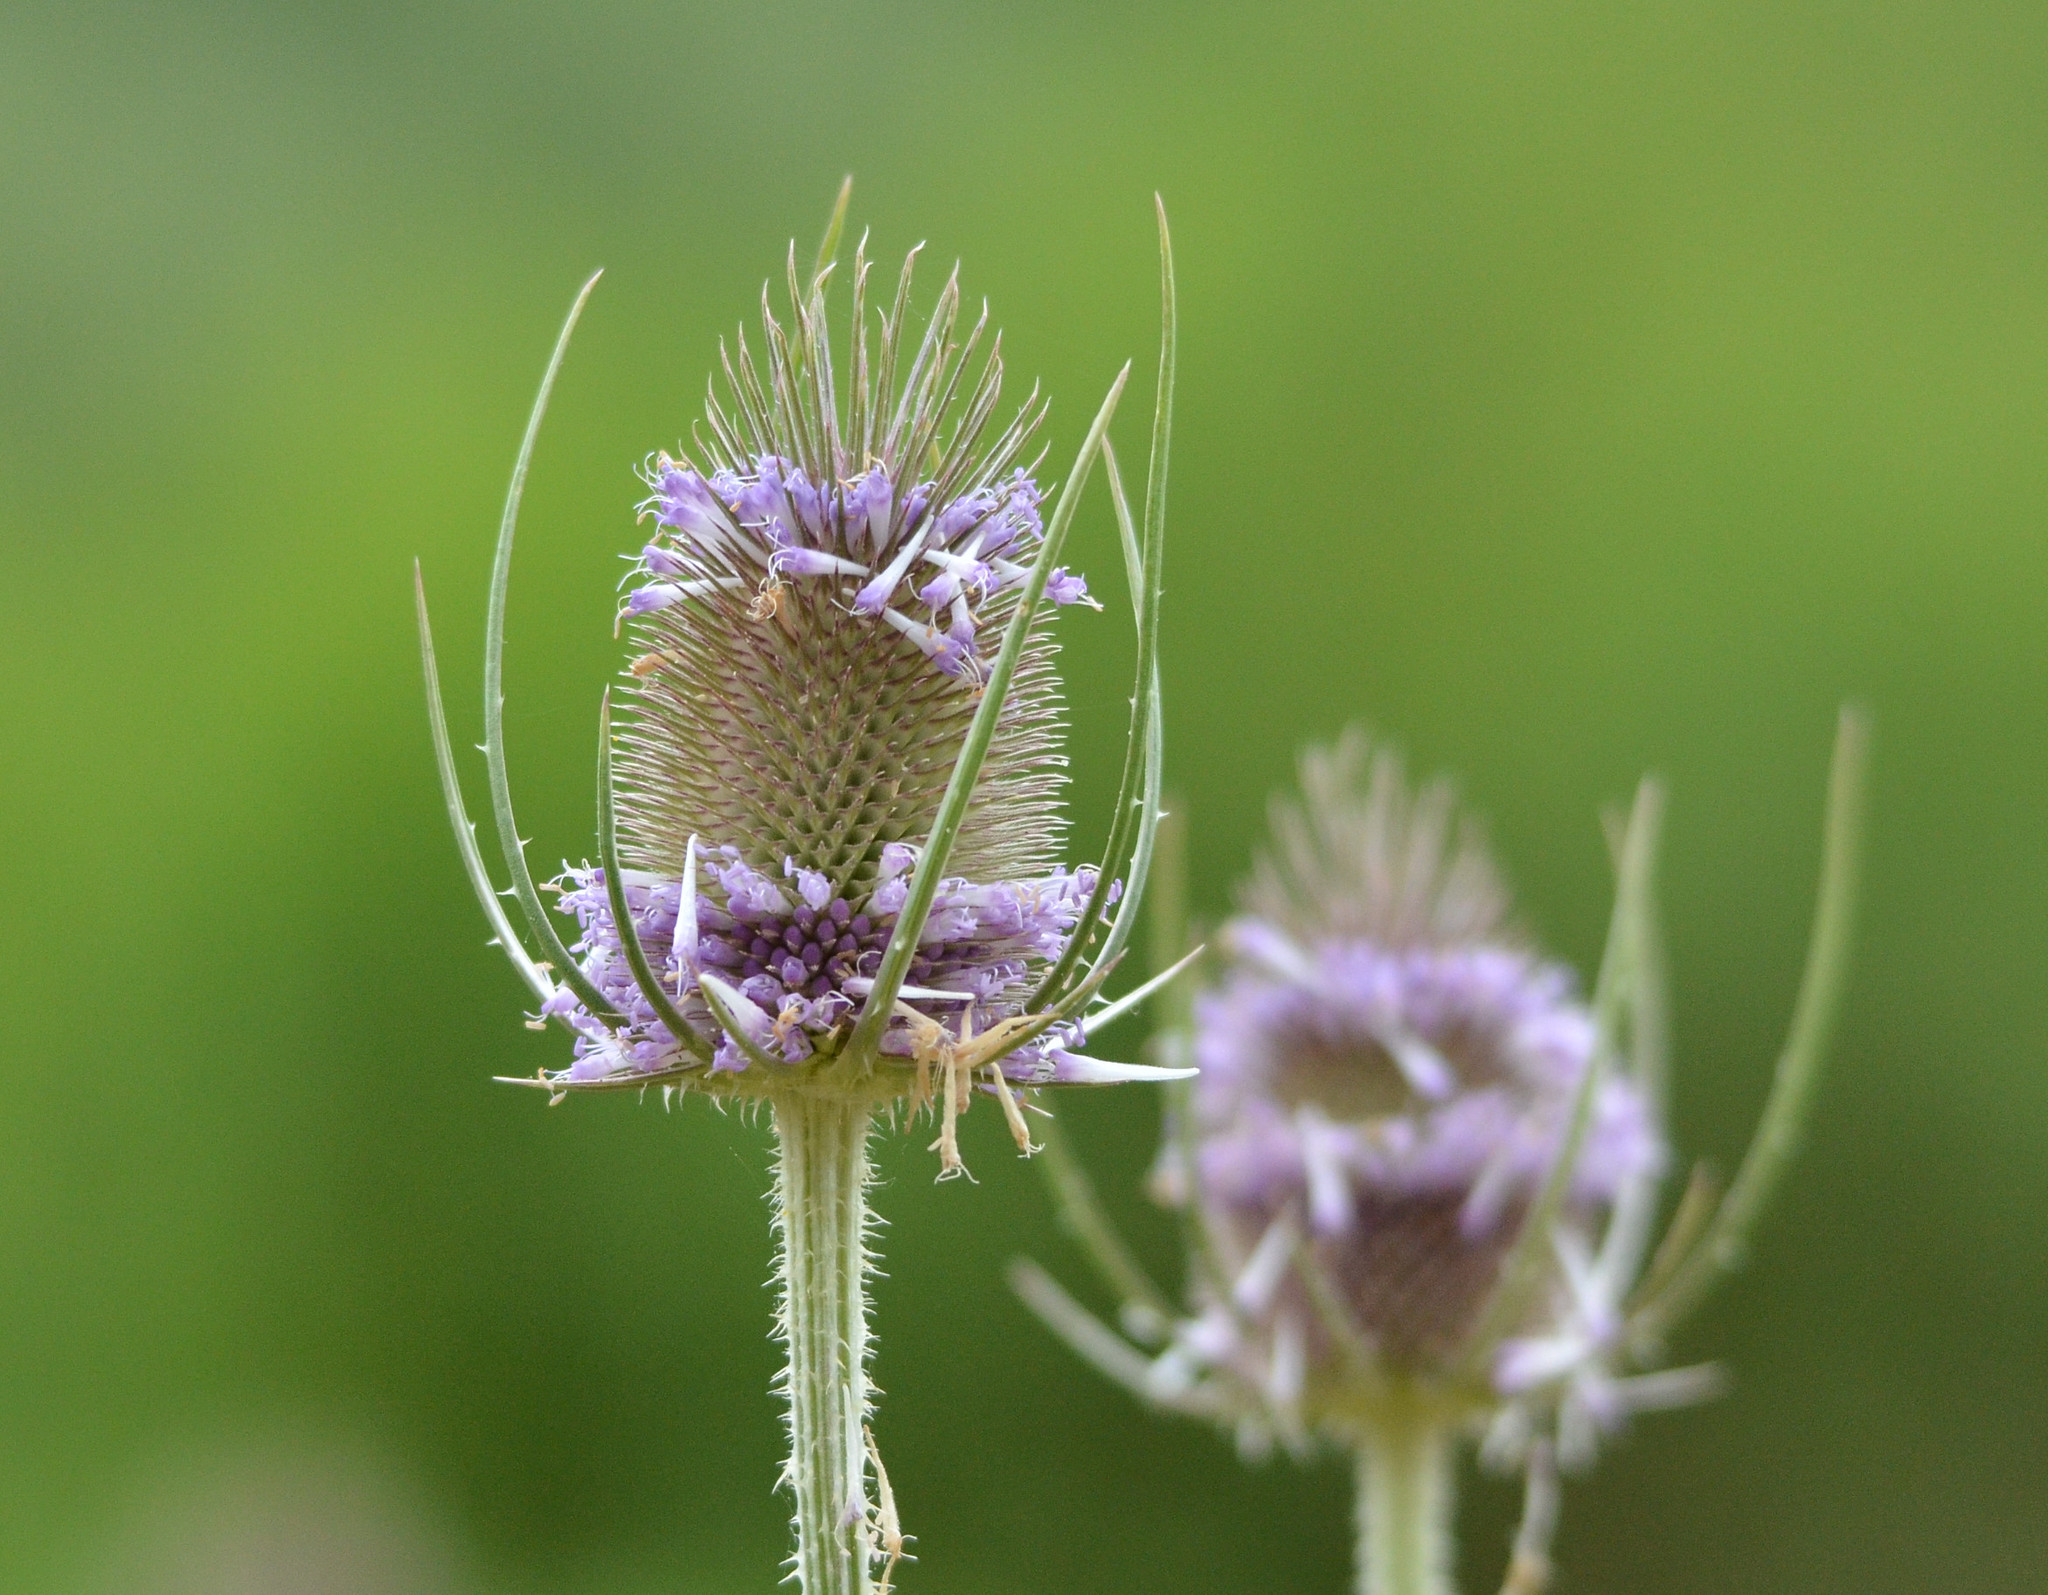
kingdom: Plantae
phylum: Tracheophyta
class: Magnoliopsida
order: Dipsacales
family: Caprifoliaceae
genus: Dipsacus
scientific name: Dipsacus
